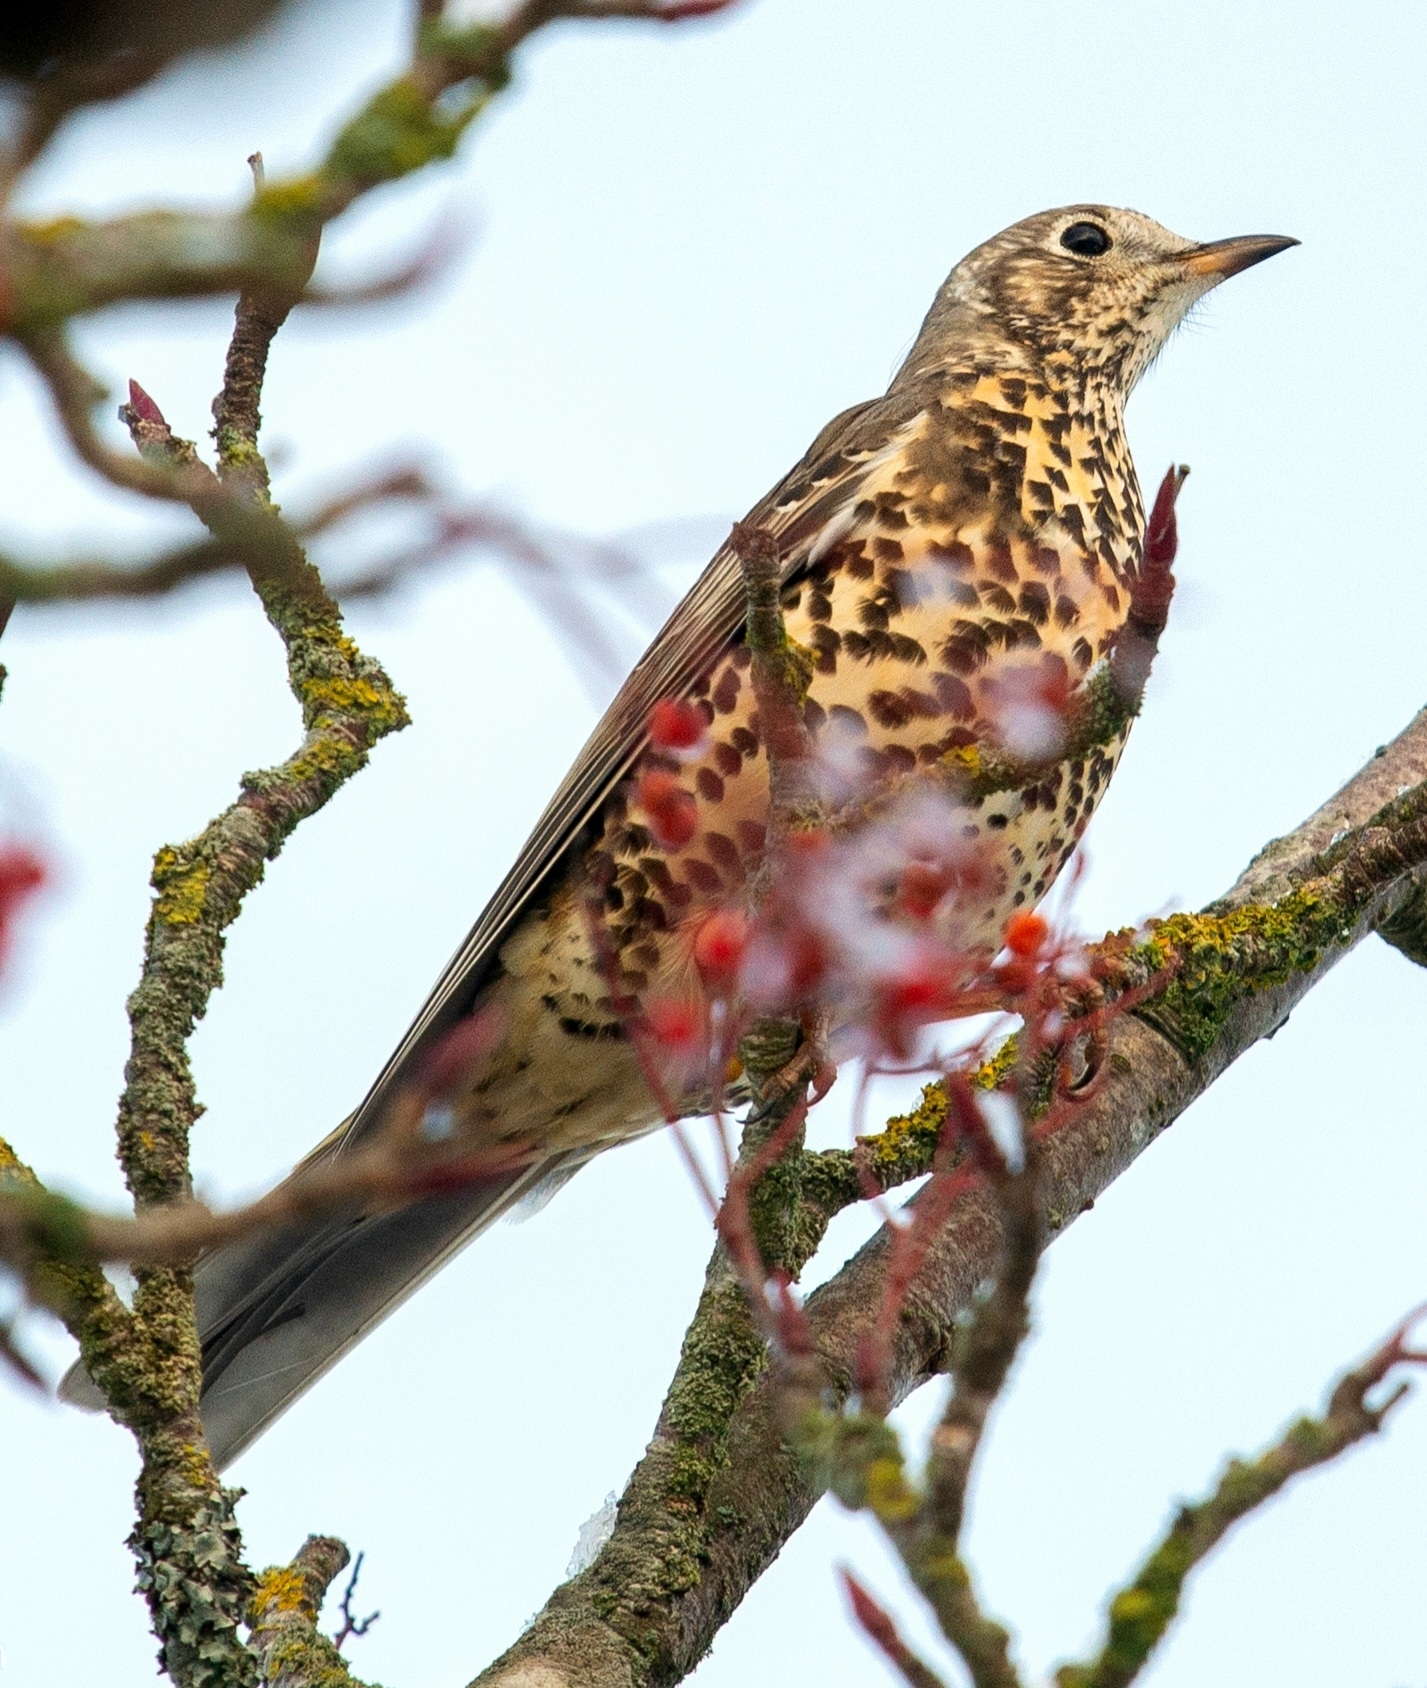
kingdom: Animalia
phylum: Chordata
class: Aves
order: Passeriformes
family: Turdidae
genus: Turdus
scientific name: Turdus viscivorus
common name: Mistle thrush
